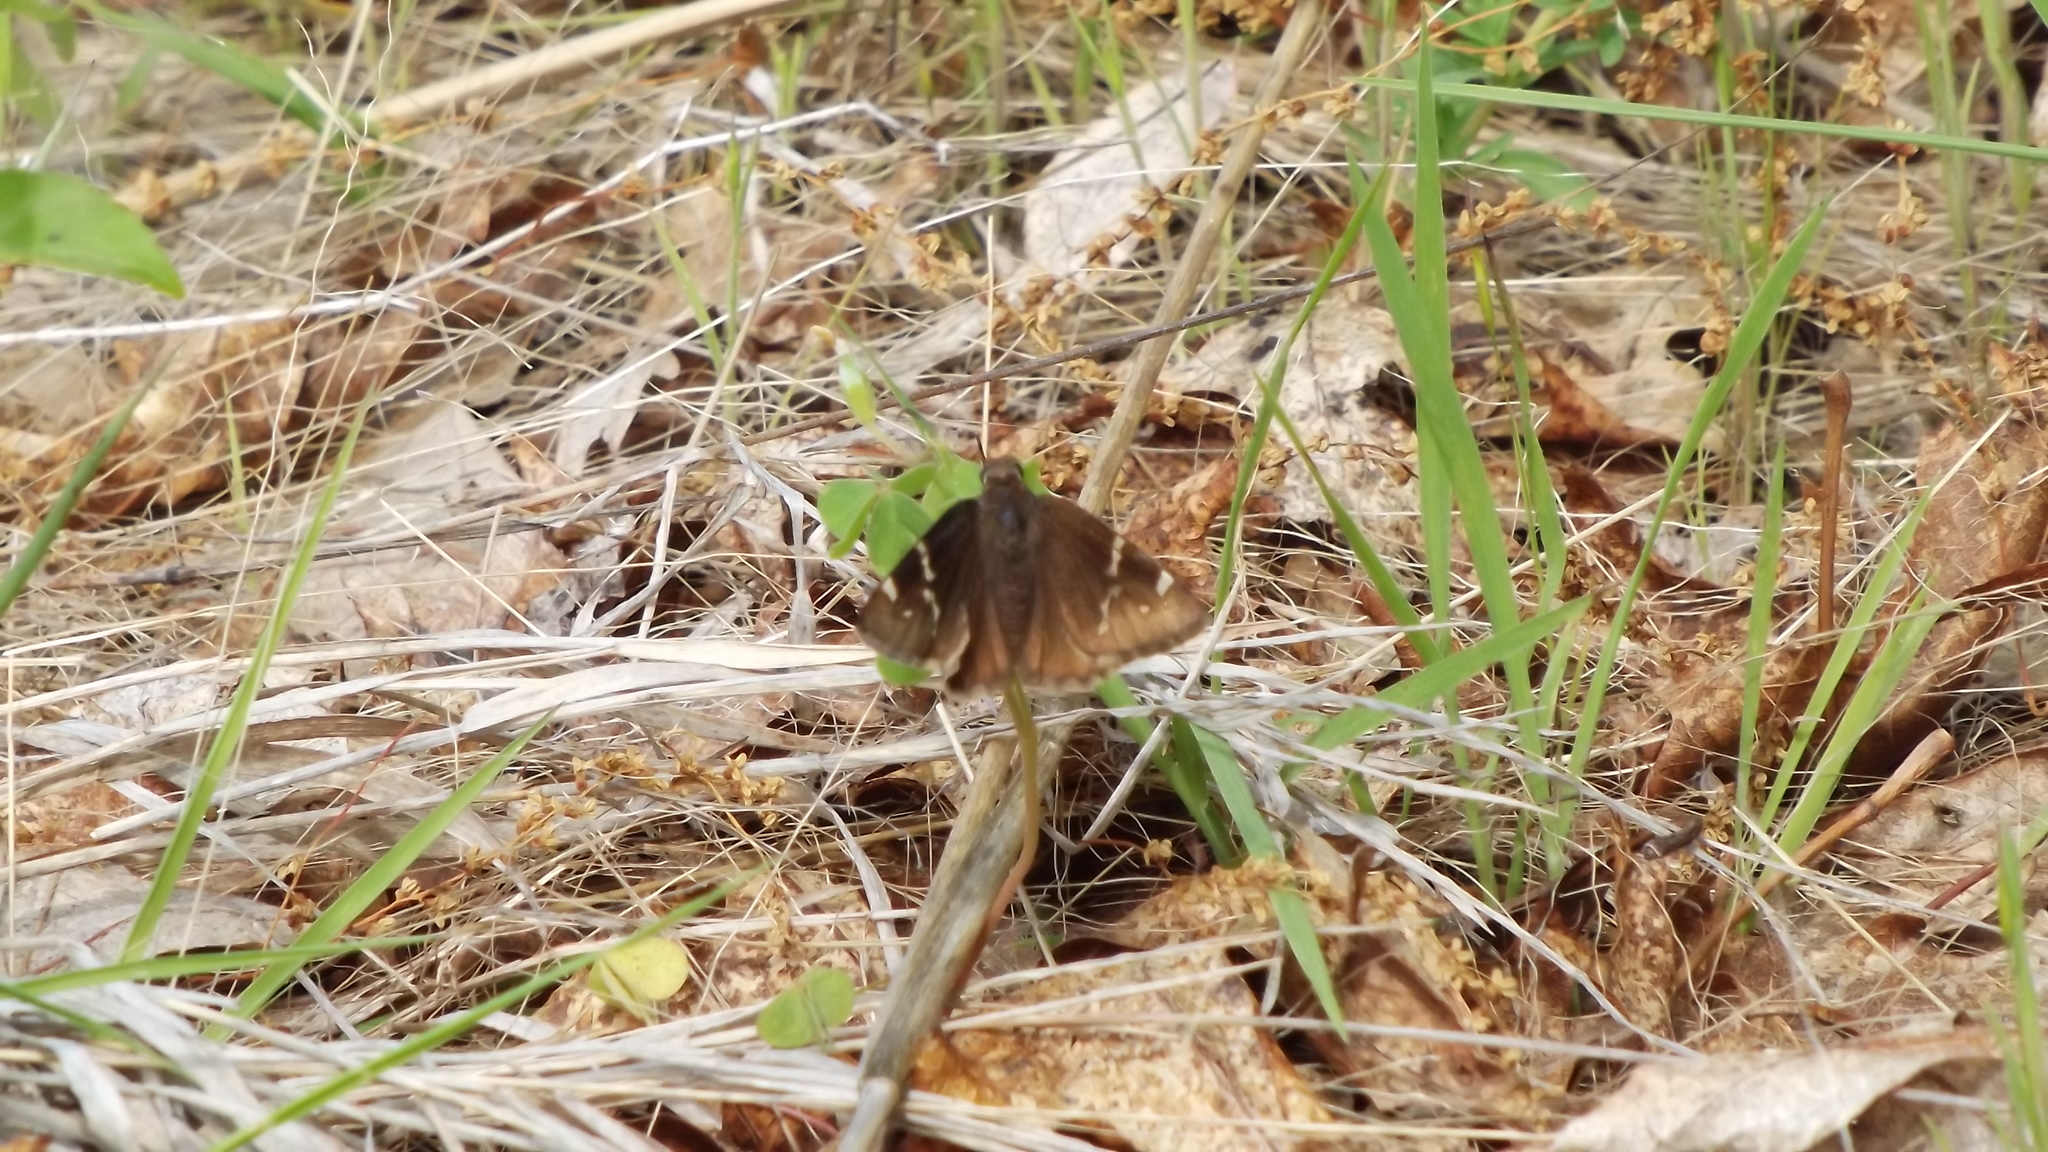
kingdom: Animalia
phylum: Arthropoda
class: Insecta
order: Lepidoptera
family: Hesperiidae
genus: Thorybes
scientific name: Thorybes daunus
